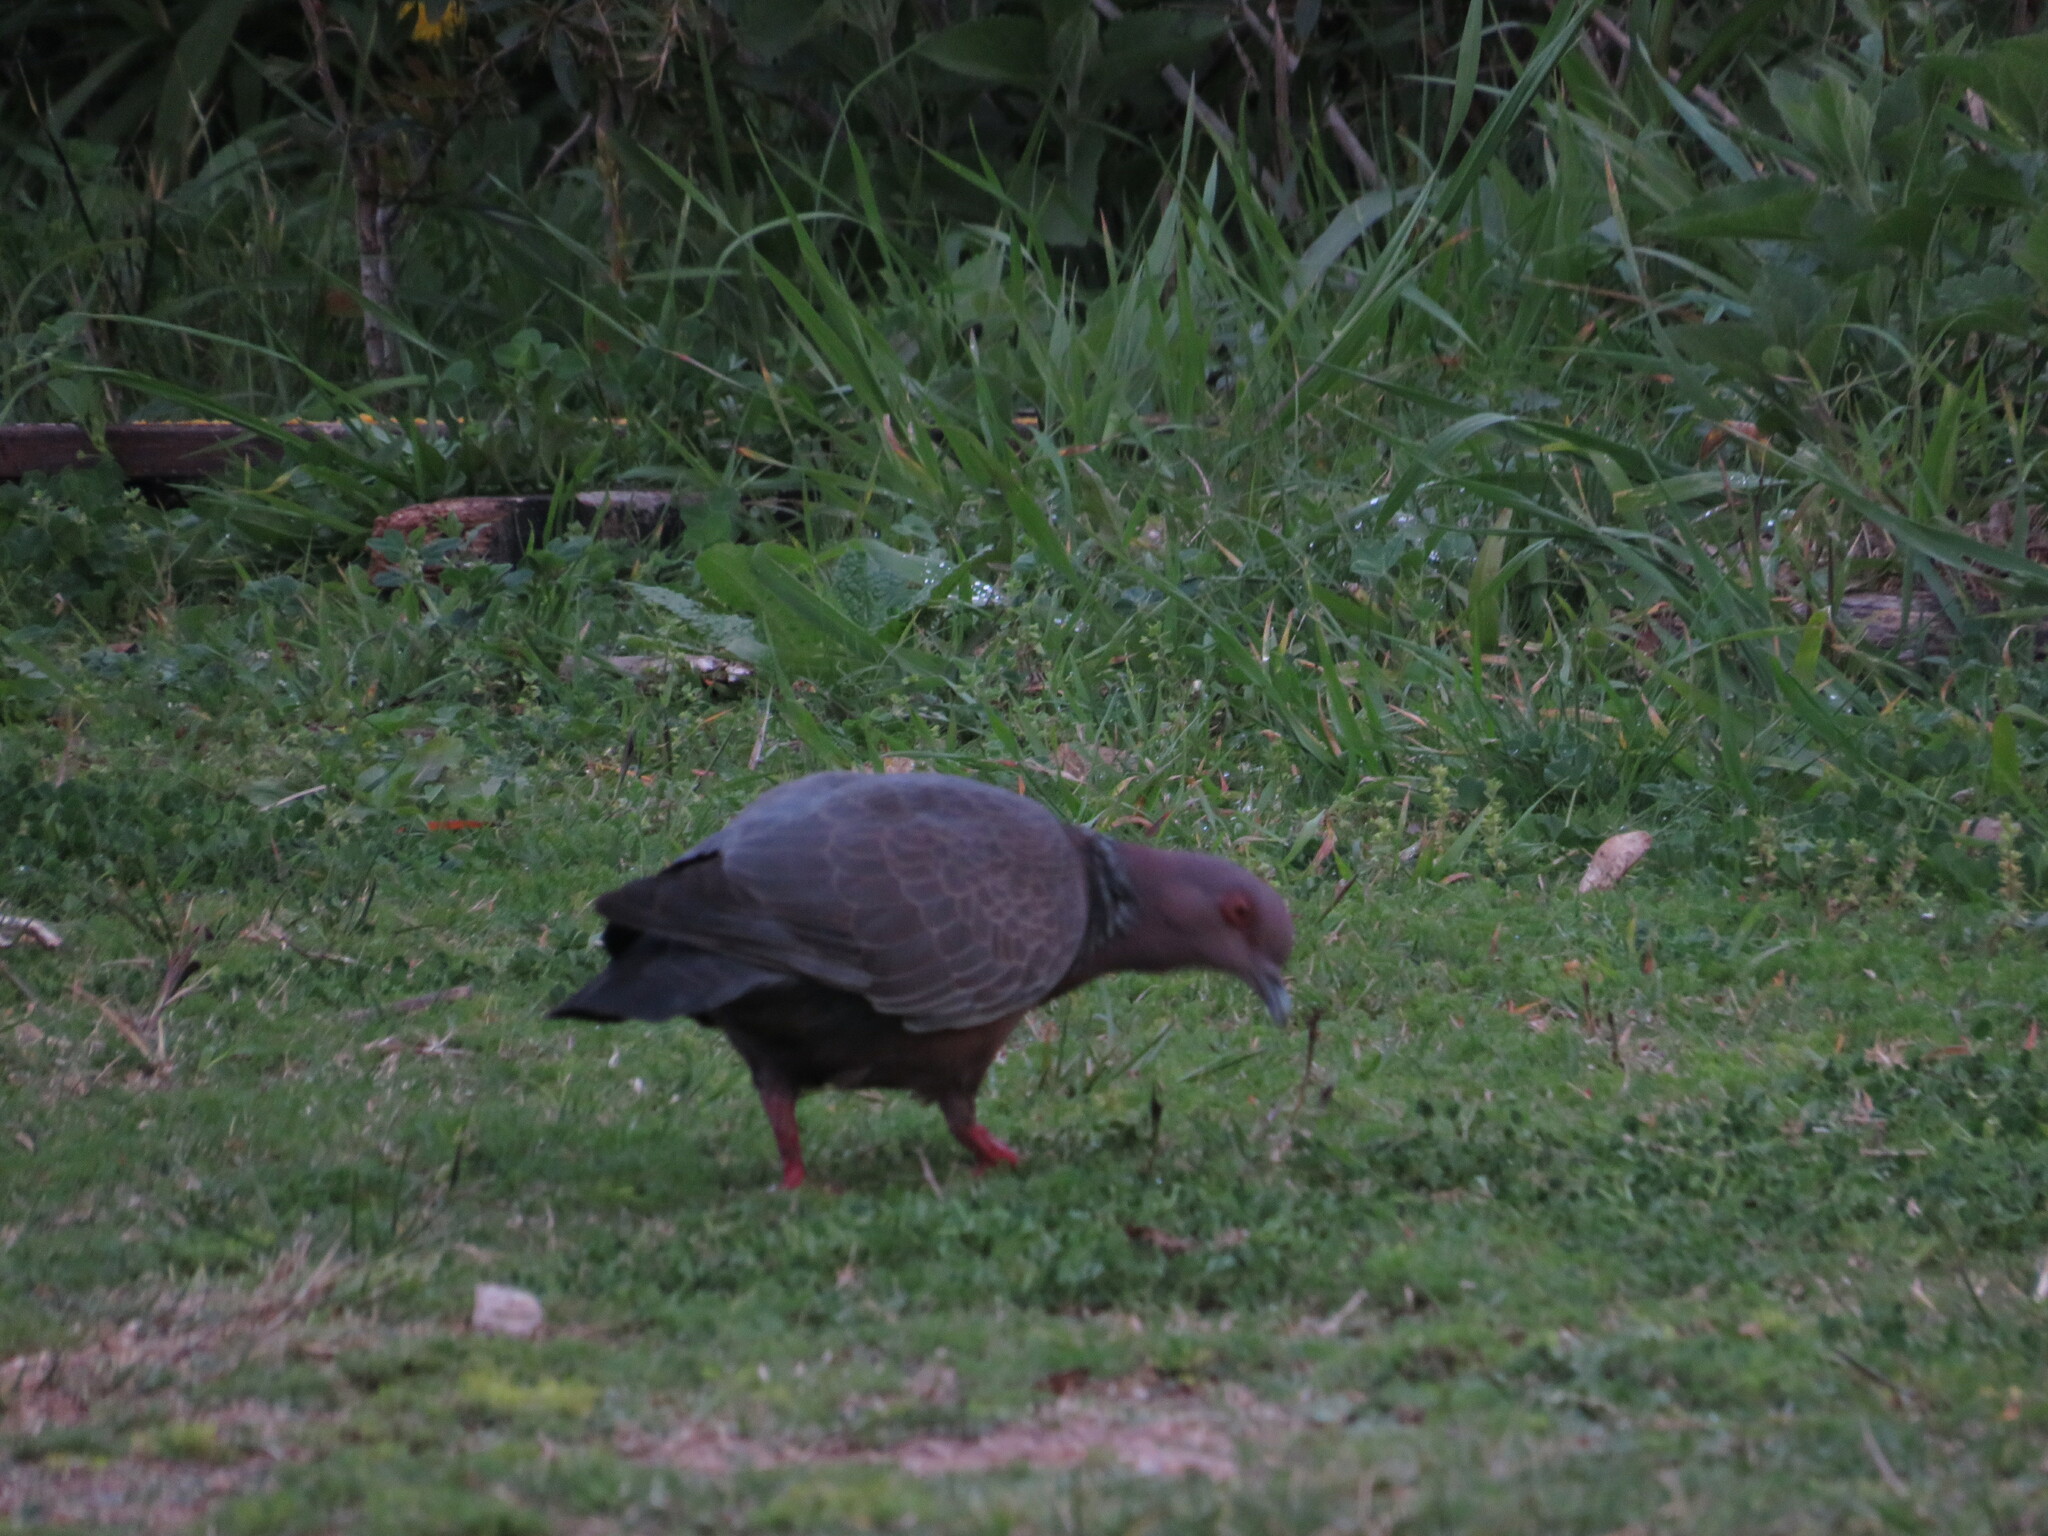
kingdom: Animalia
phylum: Chordata
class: Aves
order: Columbiformes
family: Columbidae
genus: Patagioenas
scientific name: Patagioenas picazuro
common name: Picazuro pigeon
